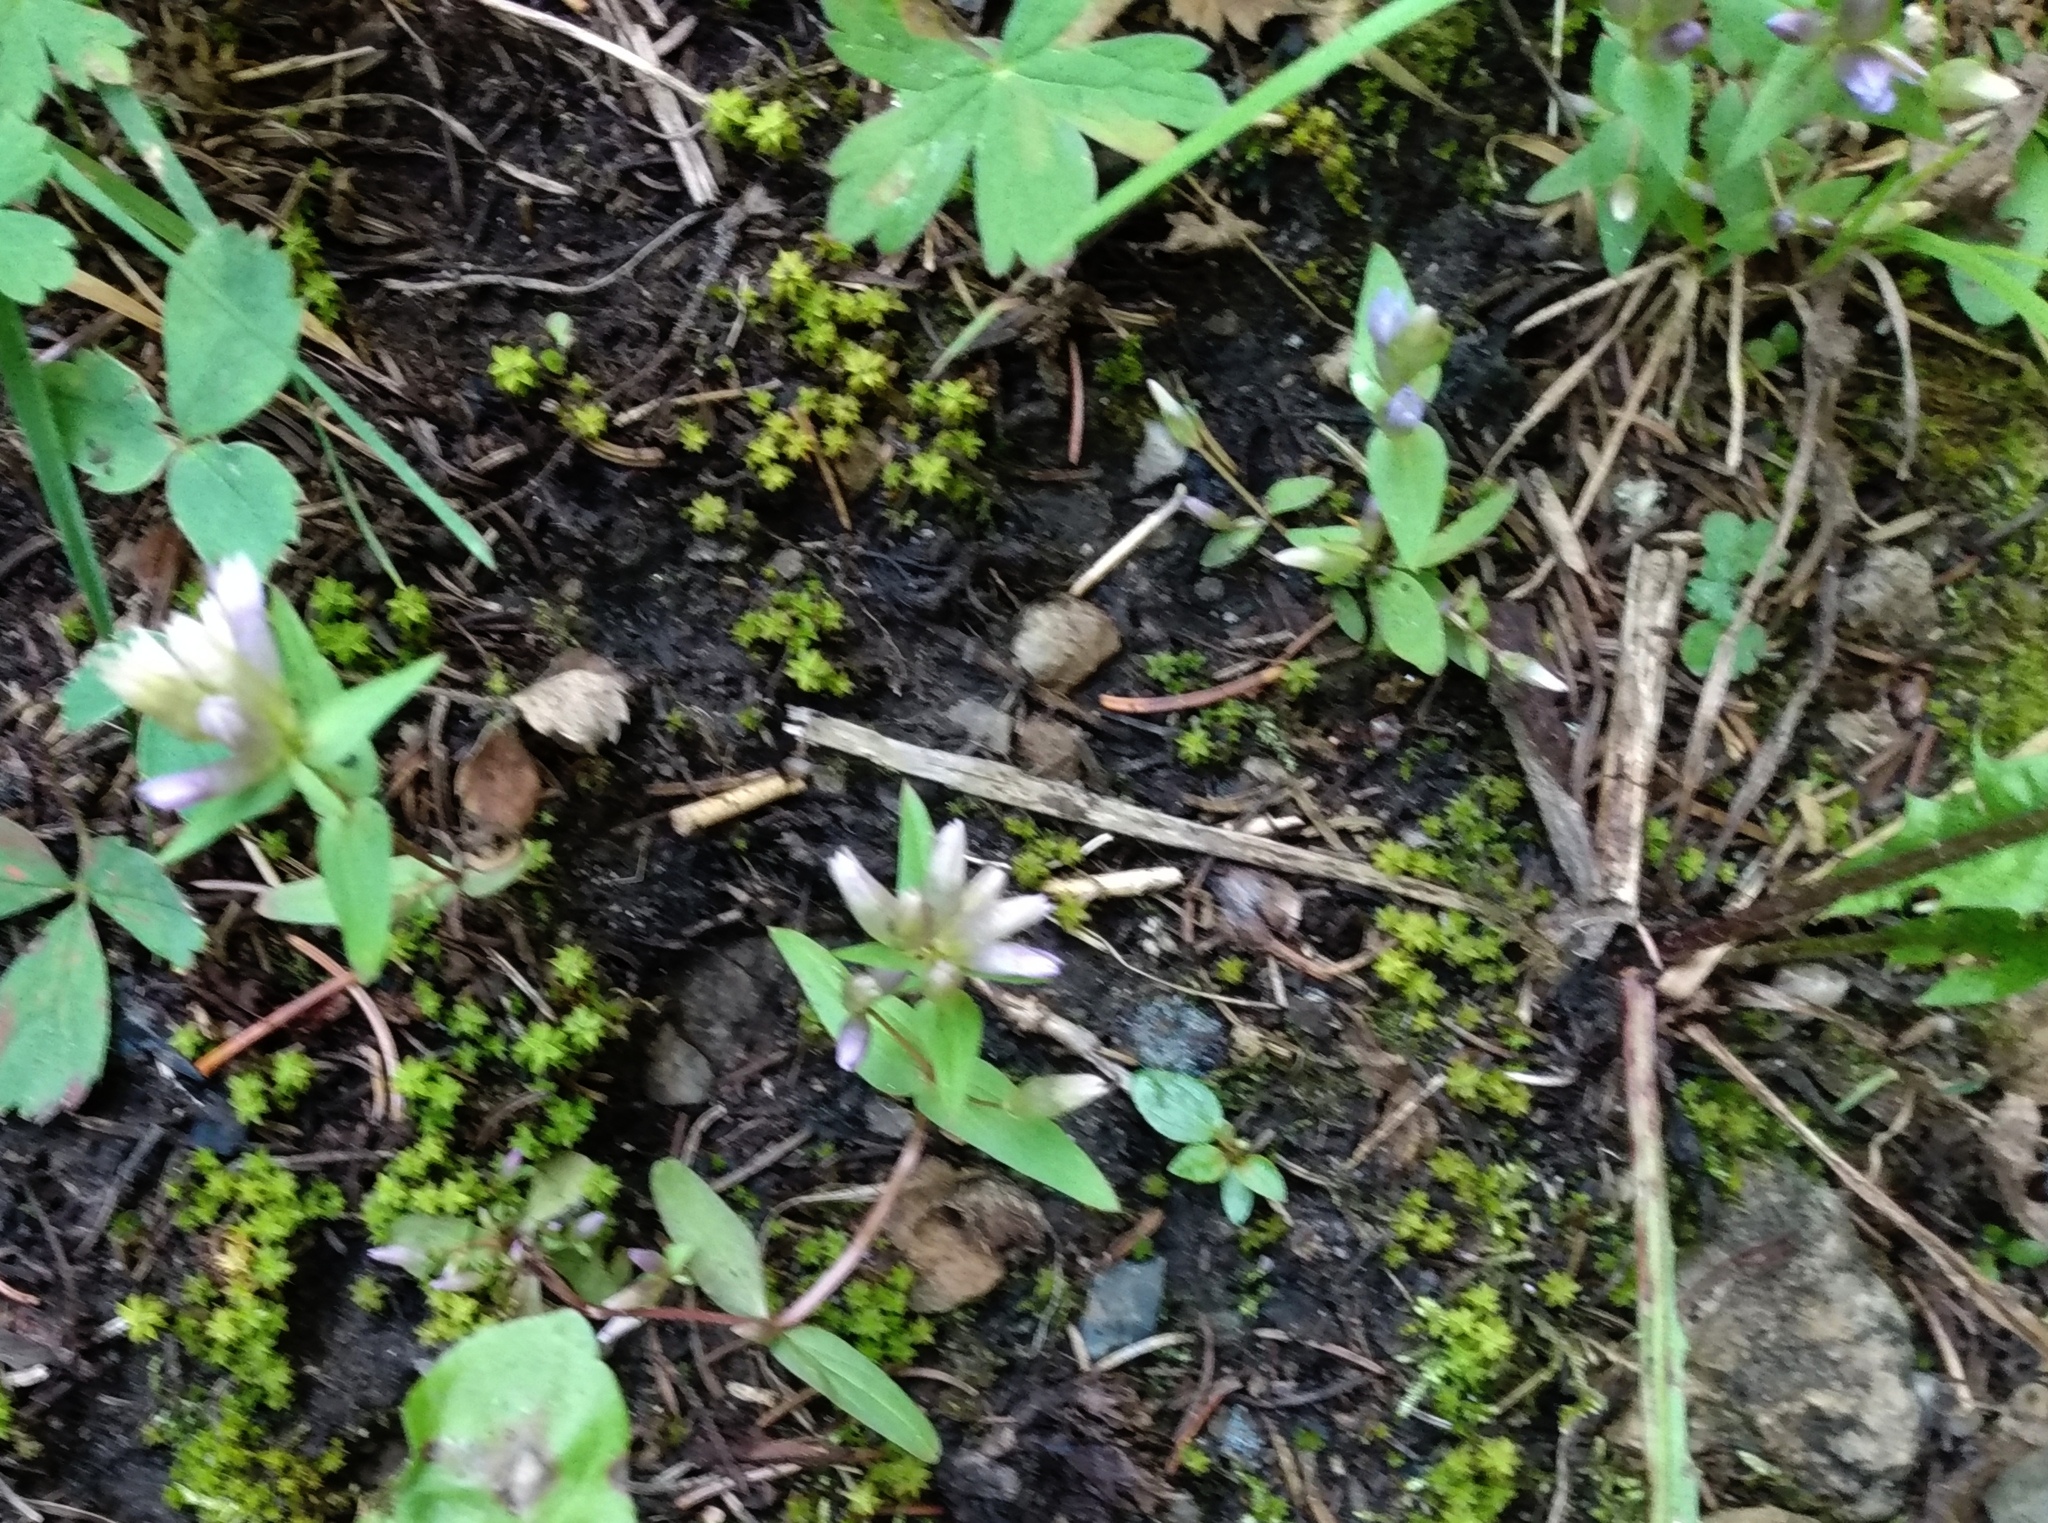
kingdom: Plantae
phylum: Tracheophyta
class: Magnoliopsida
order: Gentianales
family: Gentianaceae
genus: Gentianella
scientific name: Gentianella amarella
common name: Autumn gentian
